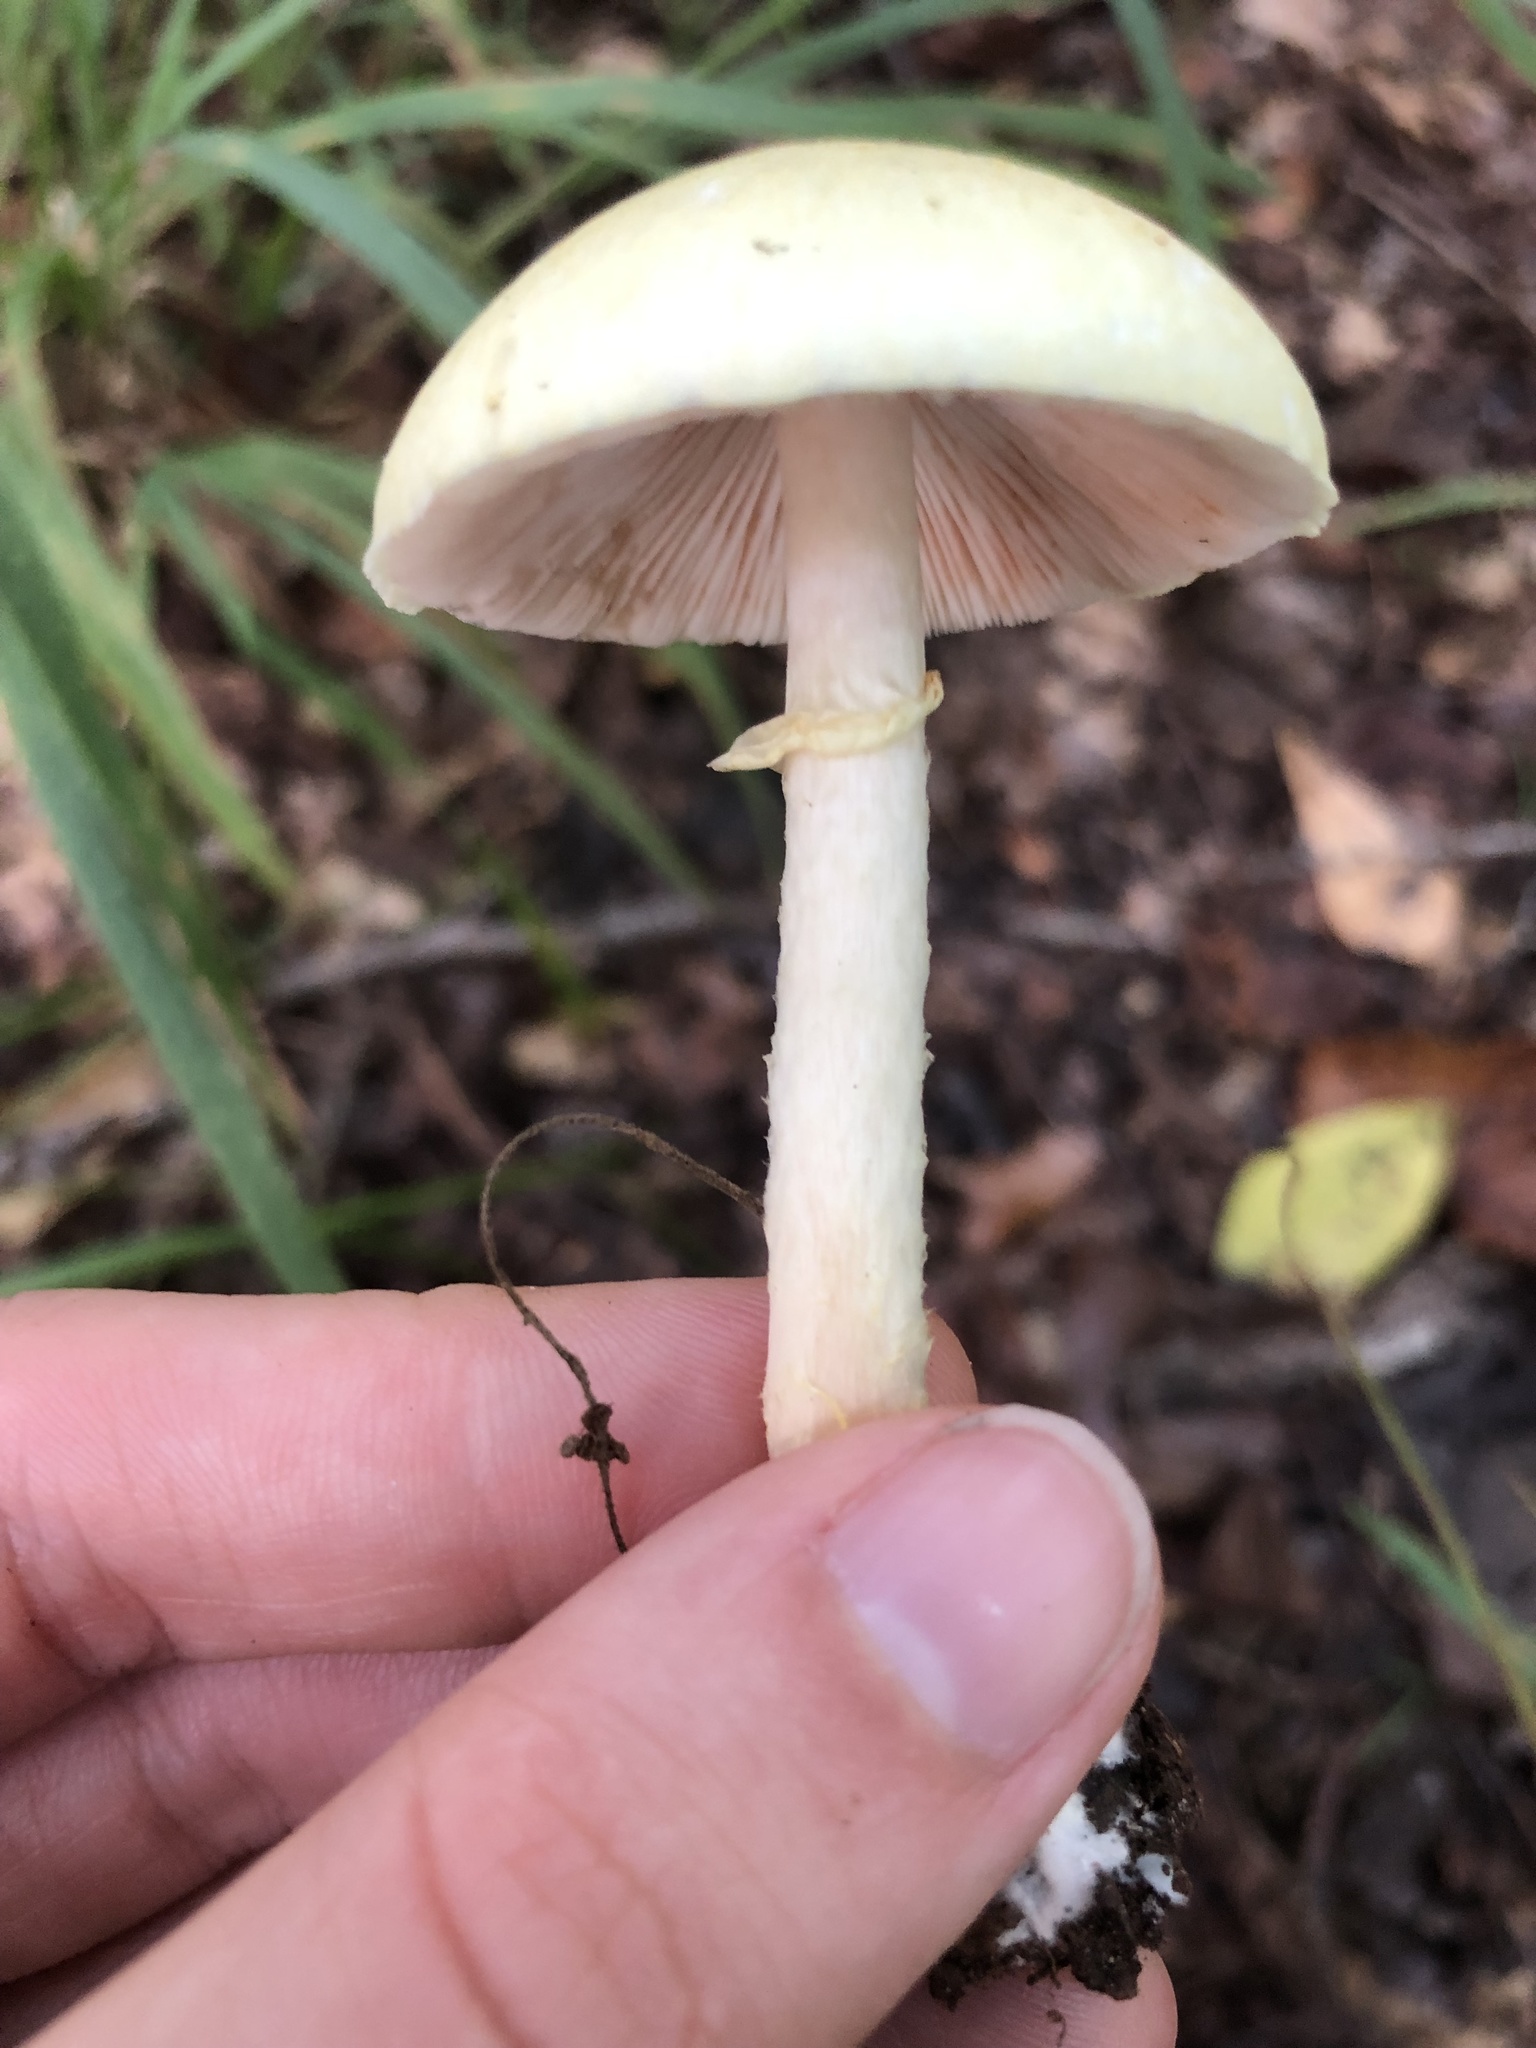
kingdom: Fungi
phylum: Basidiomycota
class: Agaricomycetes
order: Agaricales
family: Amanitaceae
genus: Amanita
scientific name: Amanita lavendula
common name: Coker's lavender staining amanita
